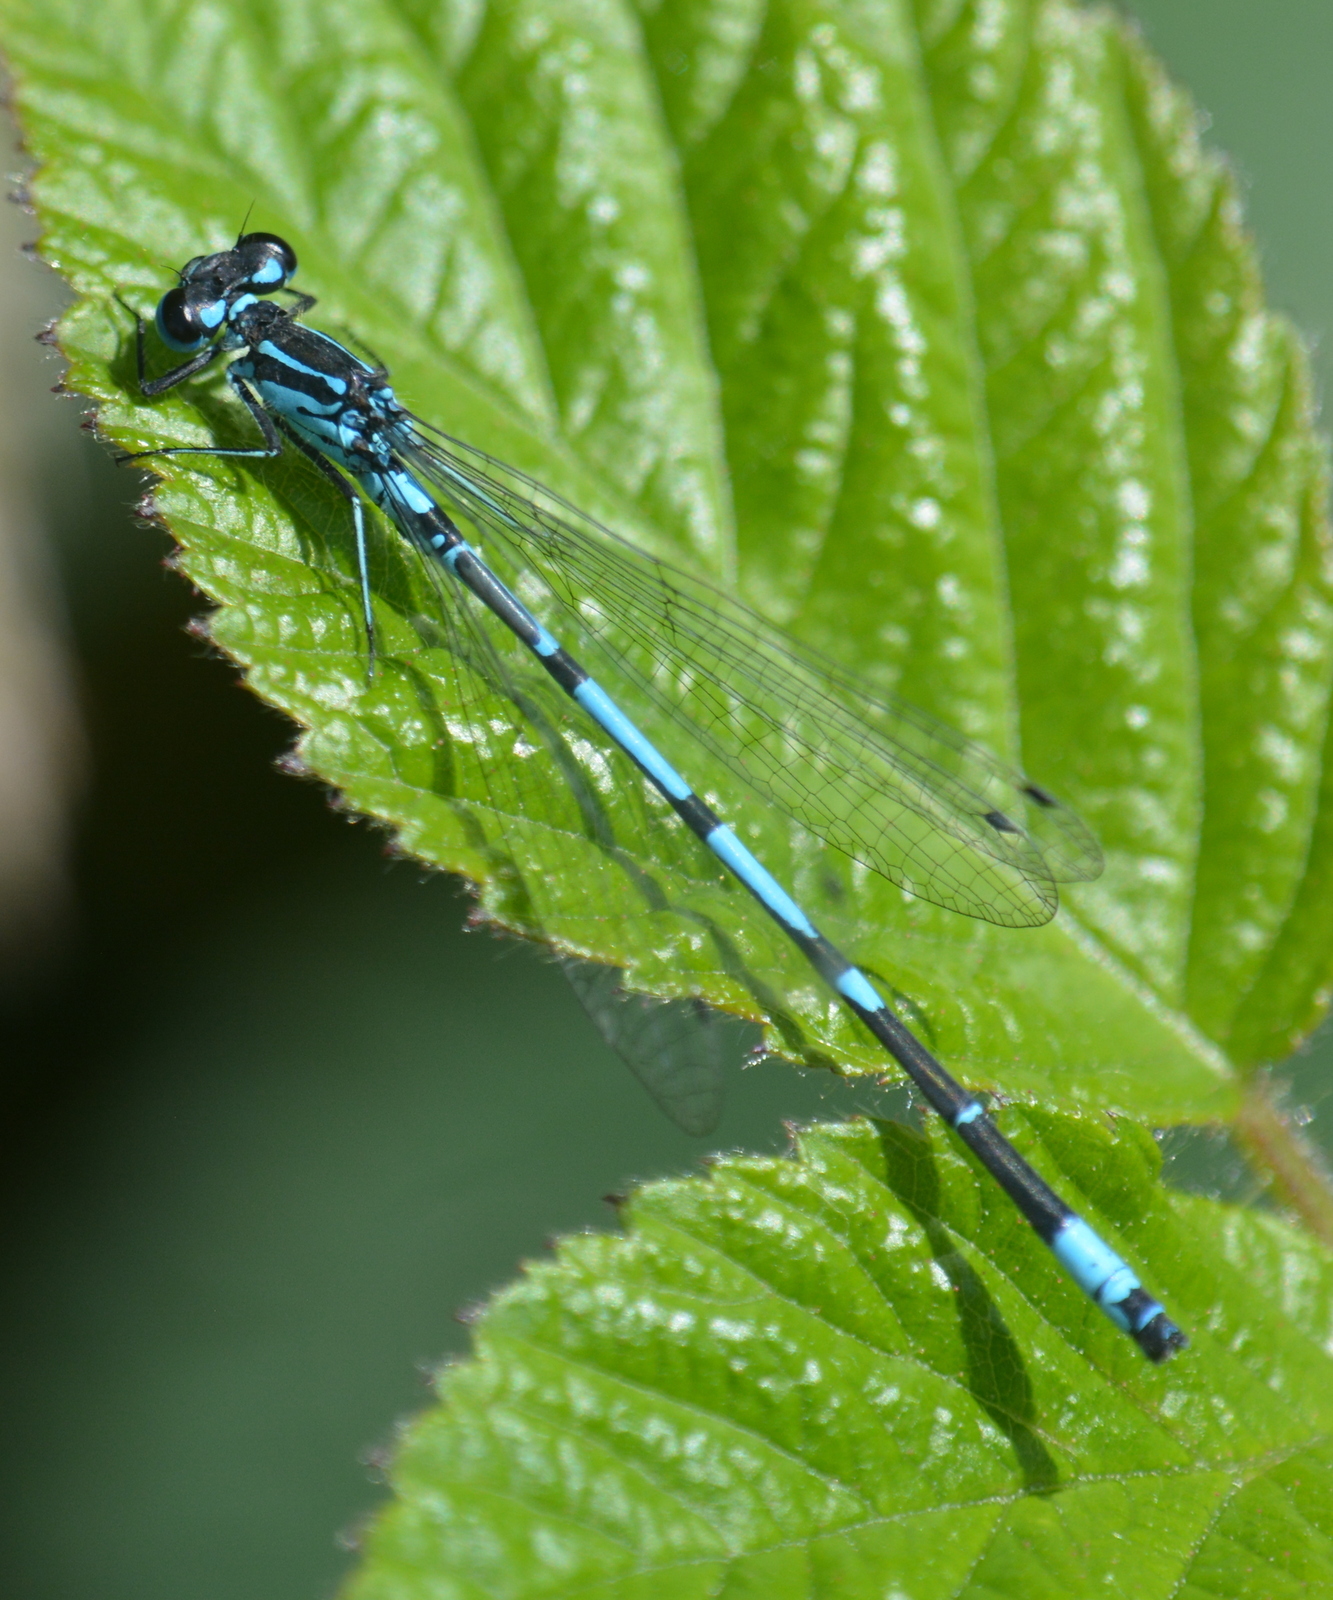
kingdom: Animalia
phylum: Arthropoda
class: Insecta
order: Odonata
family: Coenagrionidae
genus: Coenagrion
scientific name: Coenagrion pulchellum
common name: Variable bluet
